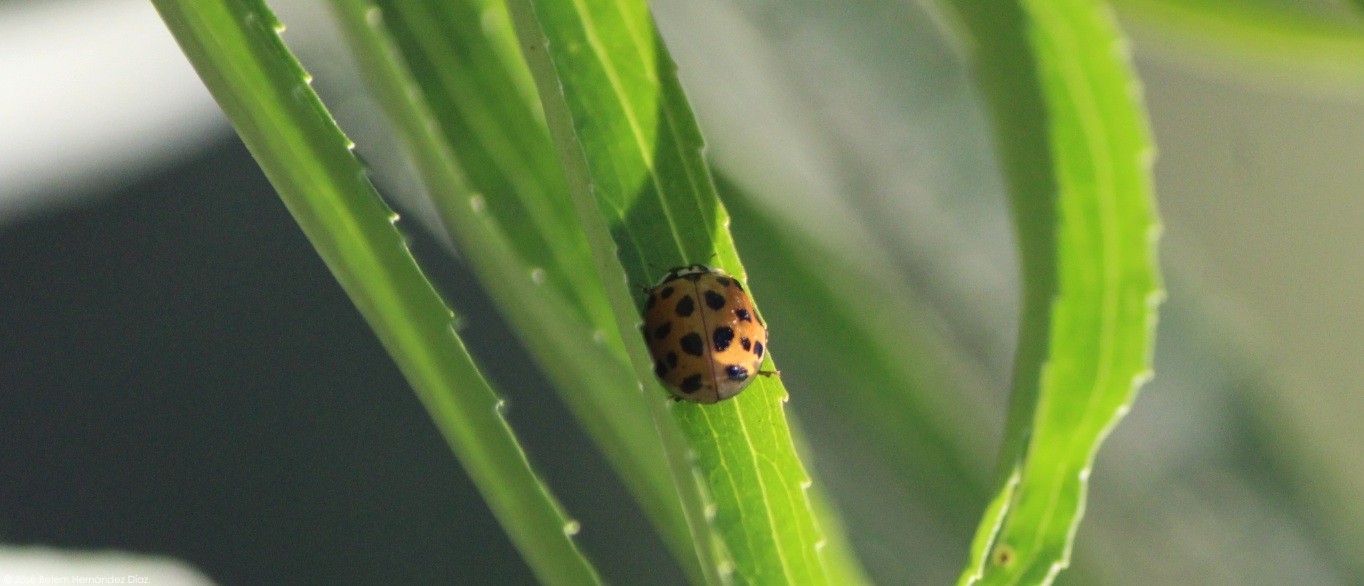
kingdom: Animalia
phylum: Arthropoda
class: Insecta
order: Coleoptera
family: Coccinellidae
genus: Harmonia
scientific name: Harmonia axyridis
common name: Harlequin ladybird
